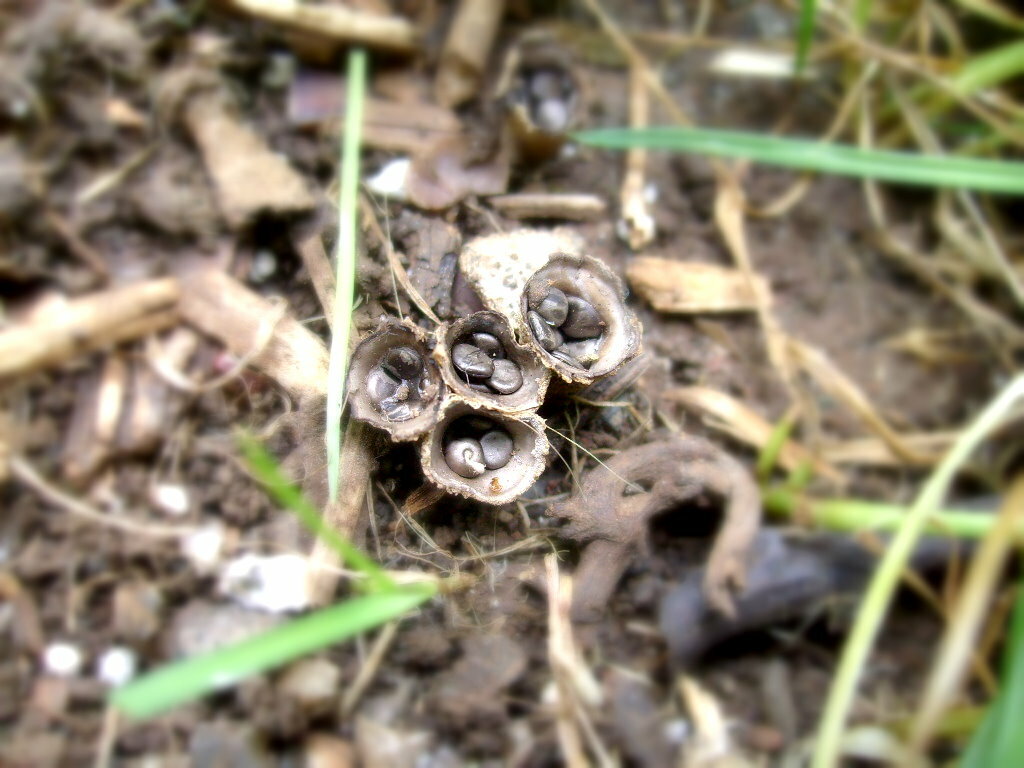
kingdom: Fungi
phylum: Basidiomycota
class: Agaricomycetes
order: Agaricales
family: Agaricaceae
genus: Cyathus
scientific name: Cyathus olla
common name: Field bird's nest
